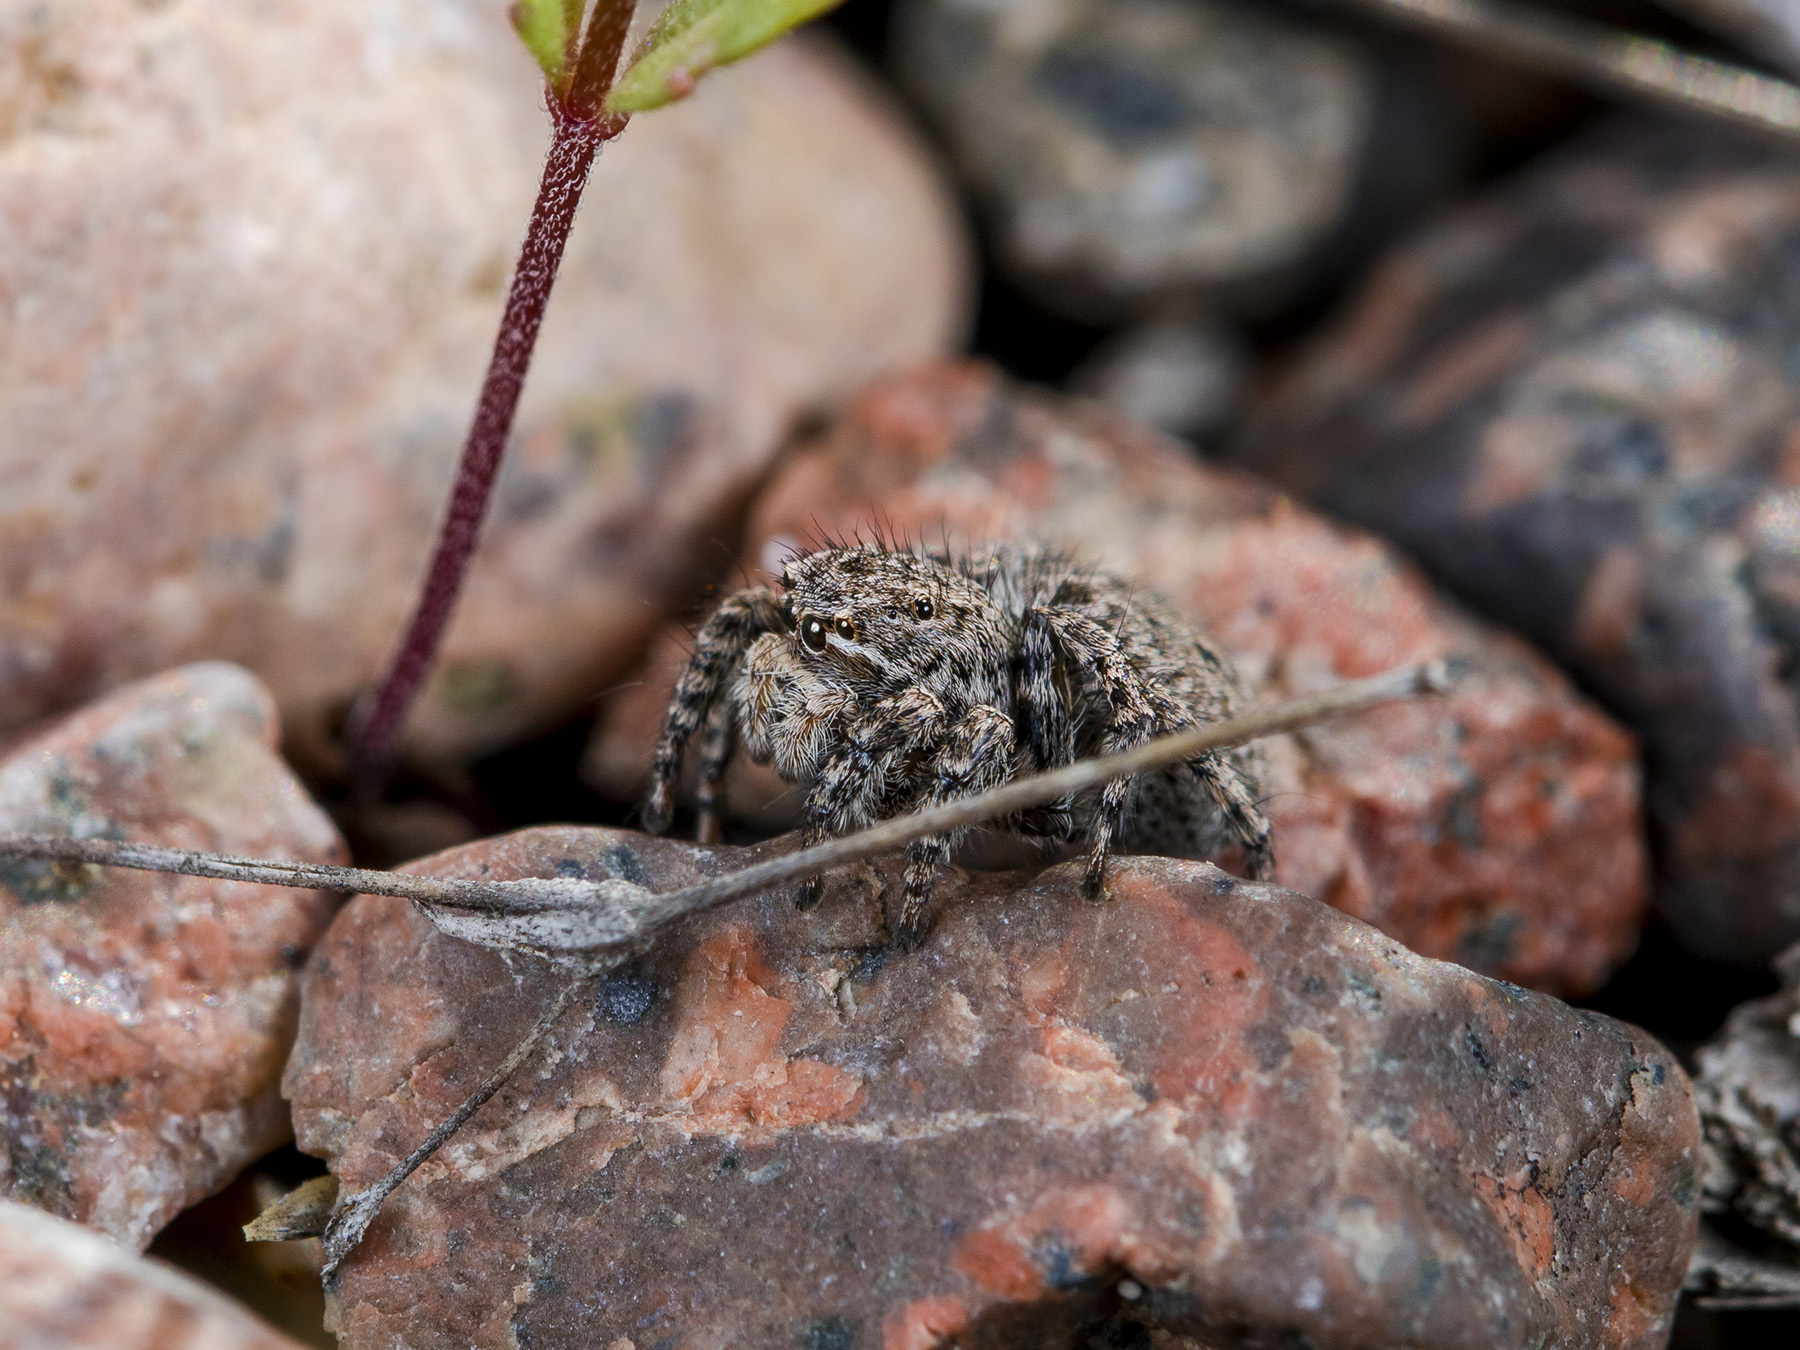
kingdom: Animalia
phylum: Arthropoda
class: Arachnida
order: Araneae
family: Salticidae
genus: Aelurillus
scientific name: Aelurillus v-insignitus
